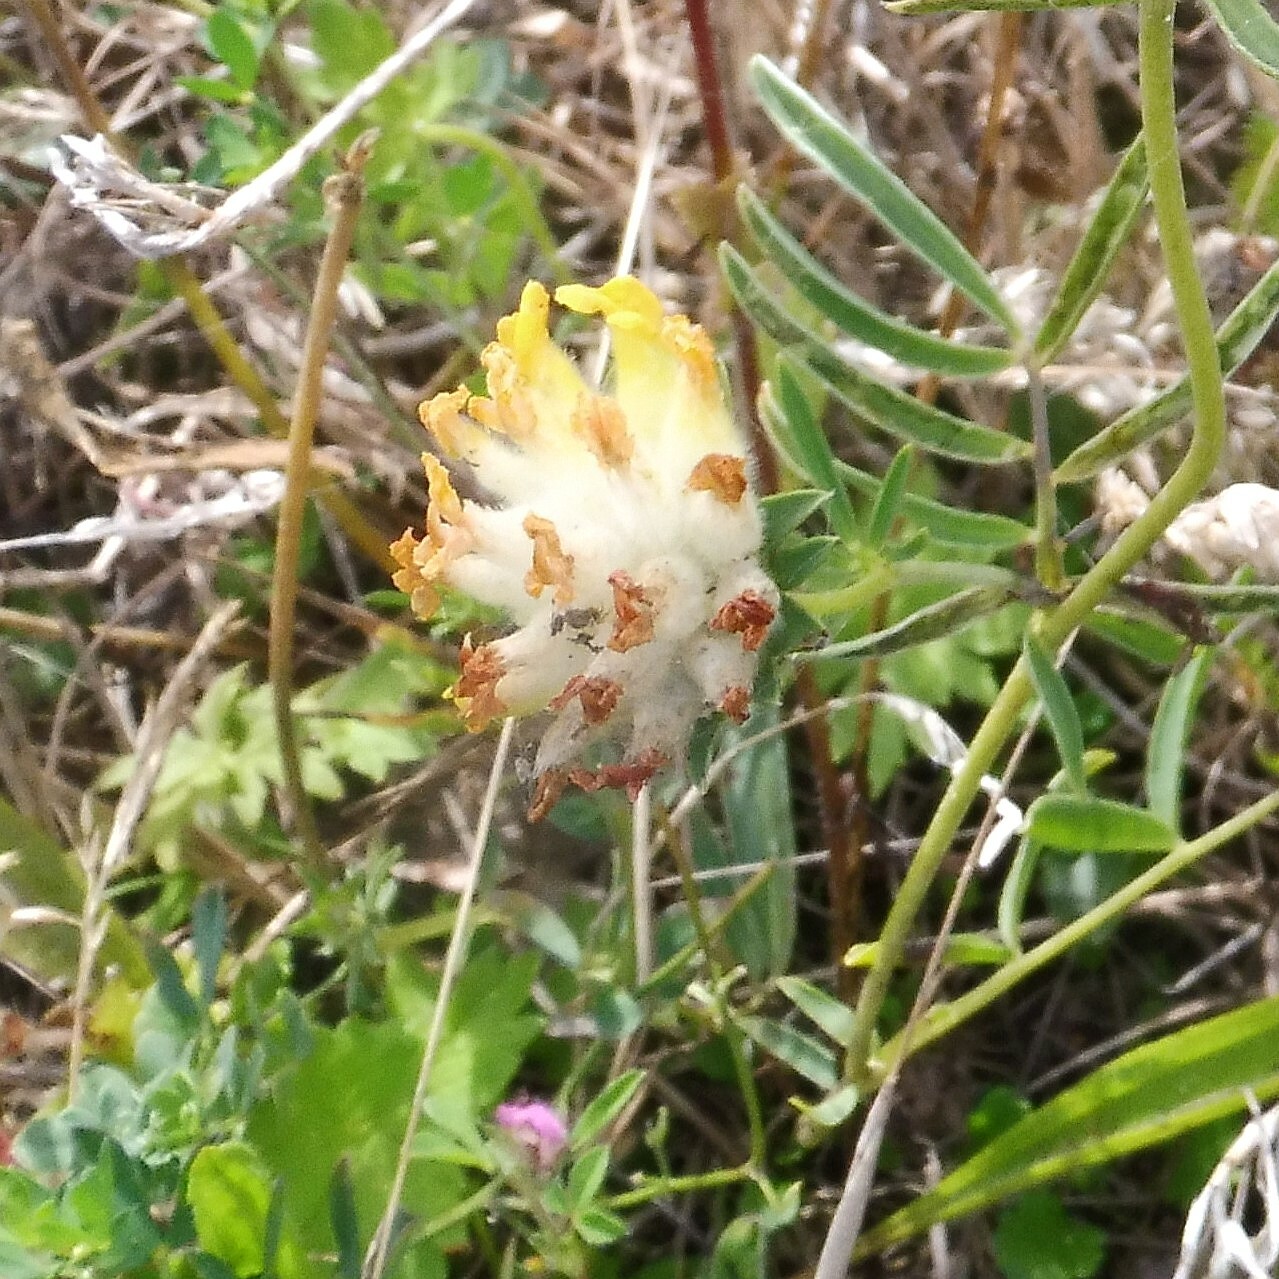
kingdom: Plantae
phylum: Tracheophyta
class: Magnoliopsida
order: Fabales
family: Fabaceae
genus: Anthyllis
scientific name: Anthyllis vulneraria
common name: Kidney vetch
